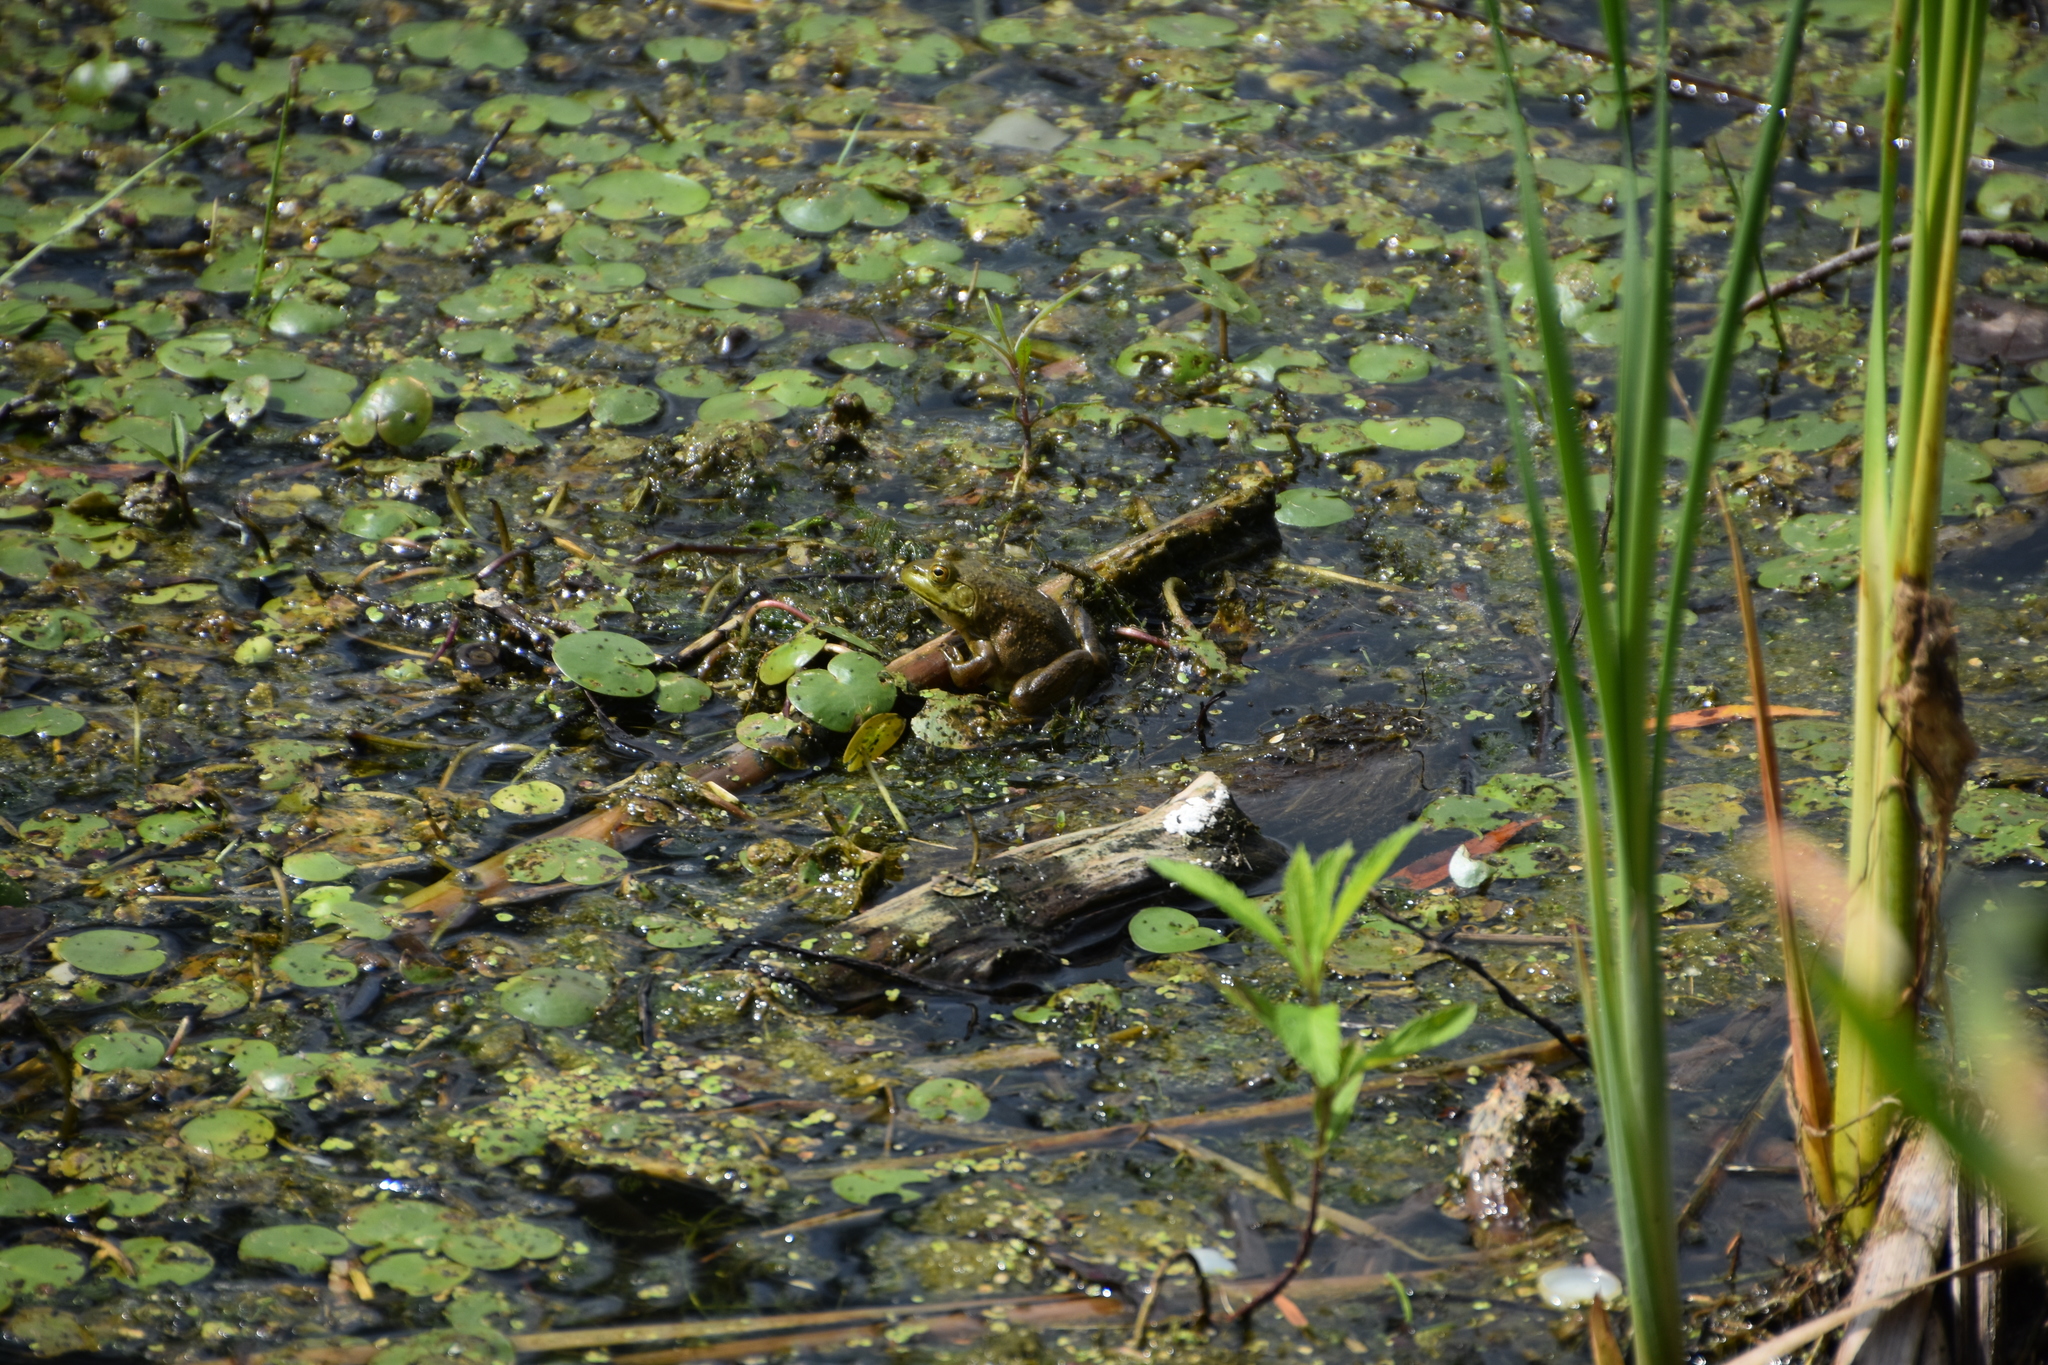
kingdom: Animalia
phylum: Chordata
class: Amphibia
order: Anura
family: Ranidae
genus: Lithobates
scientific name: Lithobates catesbeianus
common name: American bullfrog
